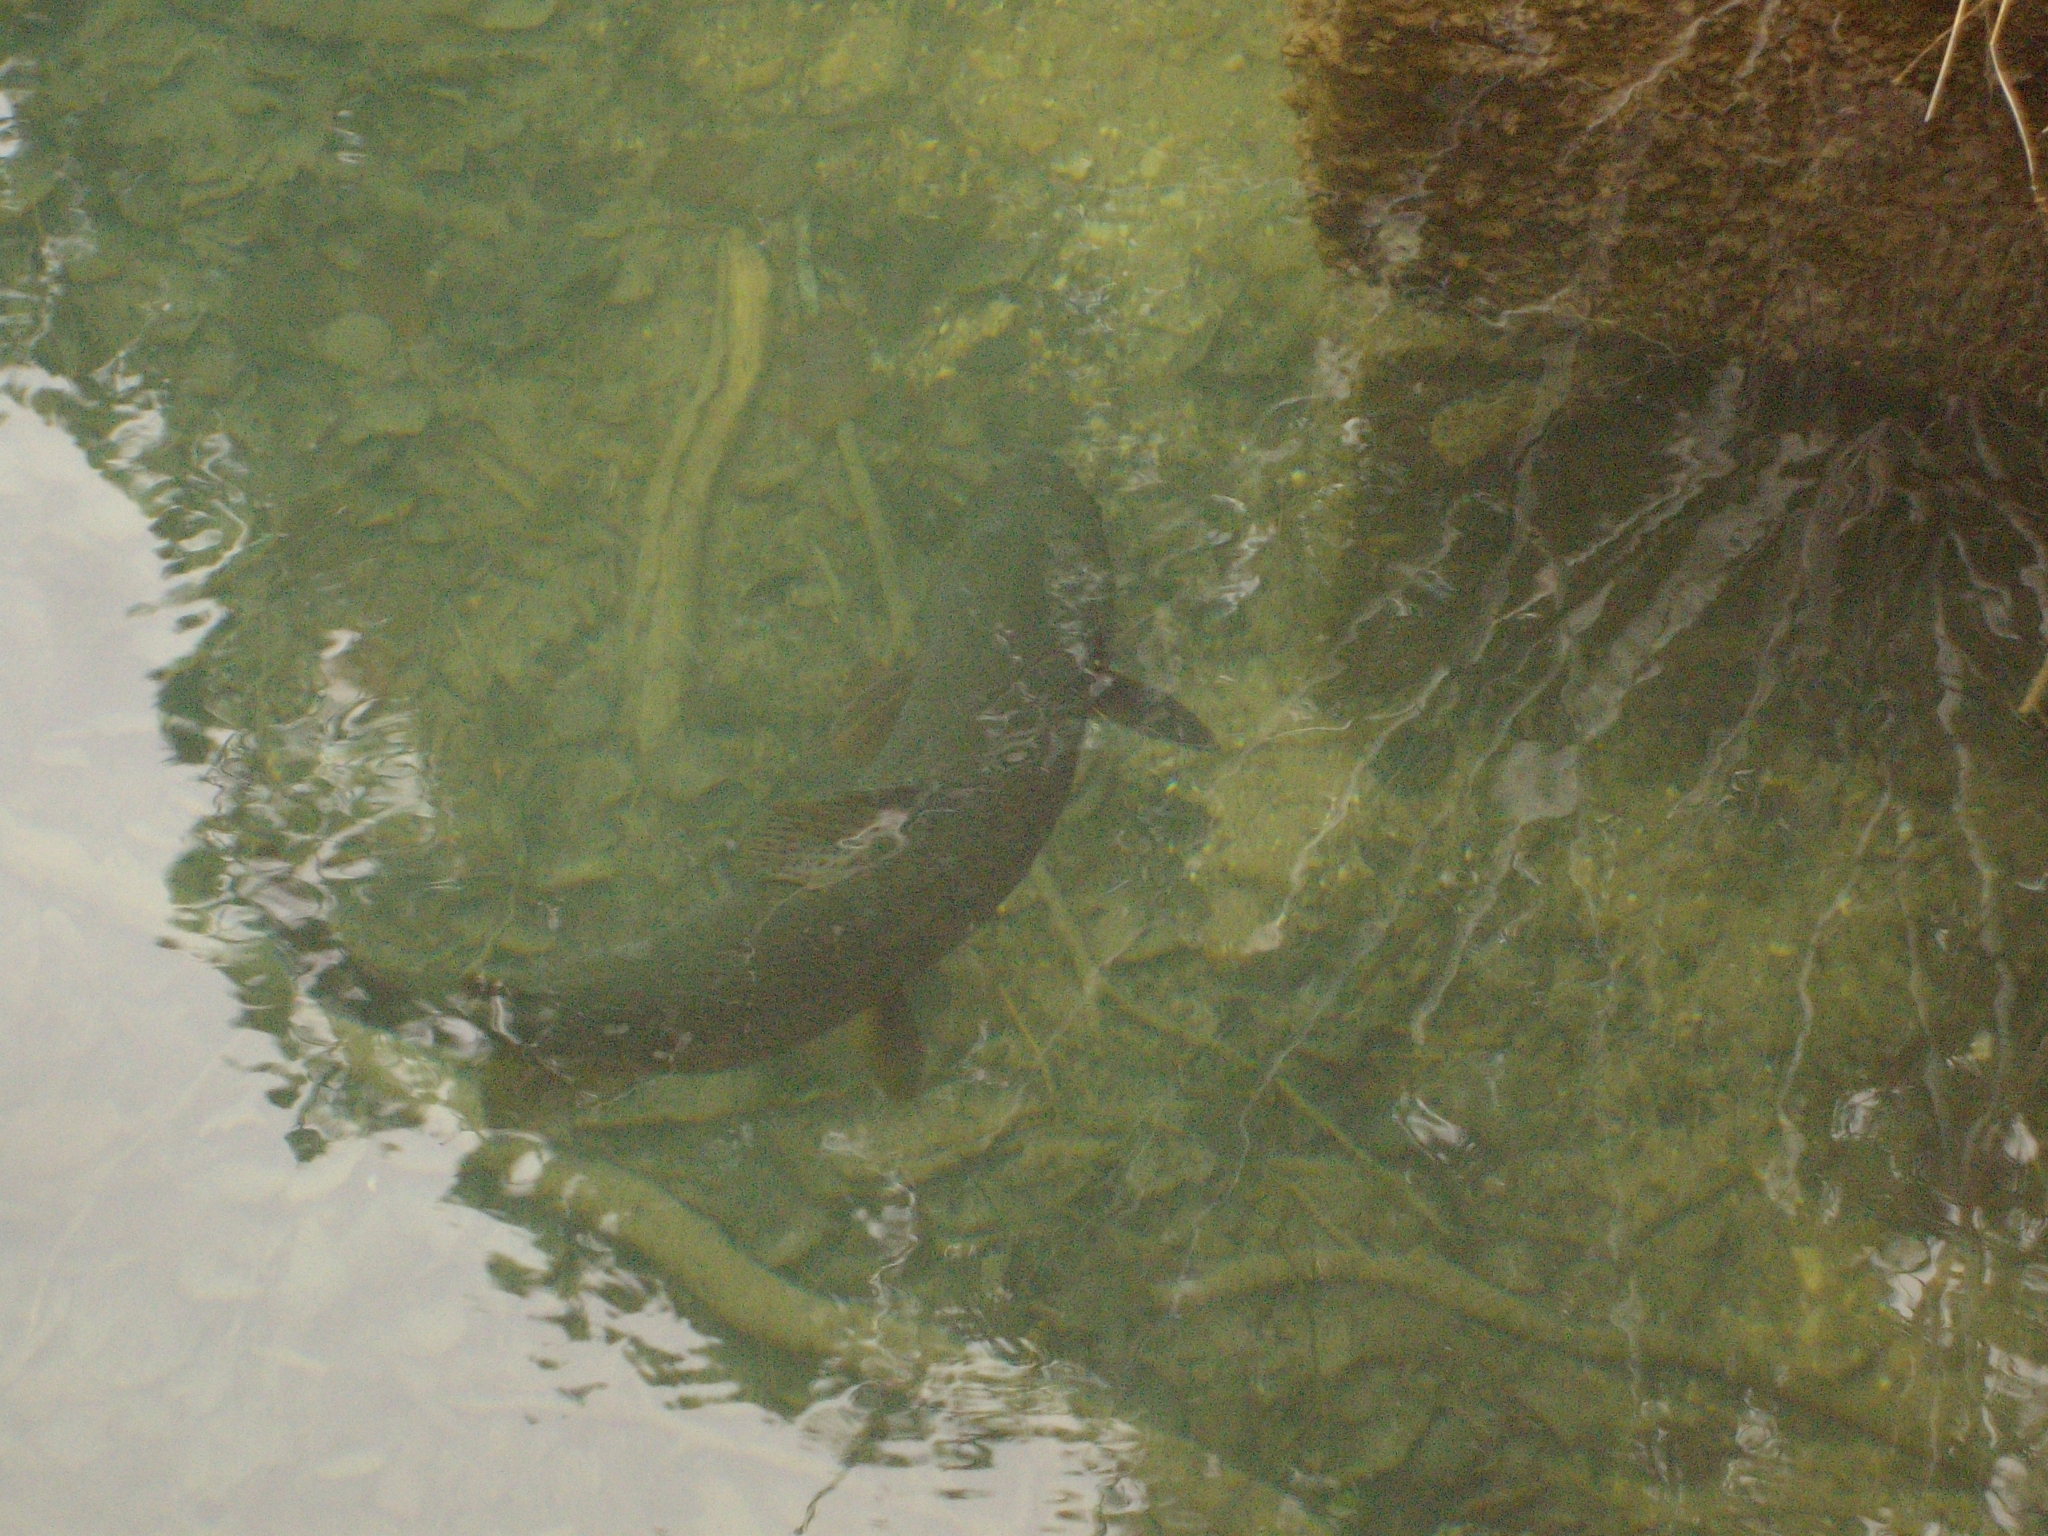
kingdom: Animalia
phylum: Chordata
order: Salmoniformes
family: Salmonidae
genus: Oncorhynchus
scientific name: Oncorhynchus mykiss
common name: Rainbow trout
